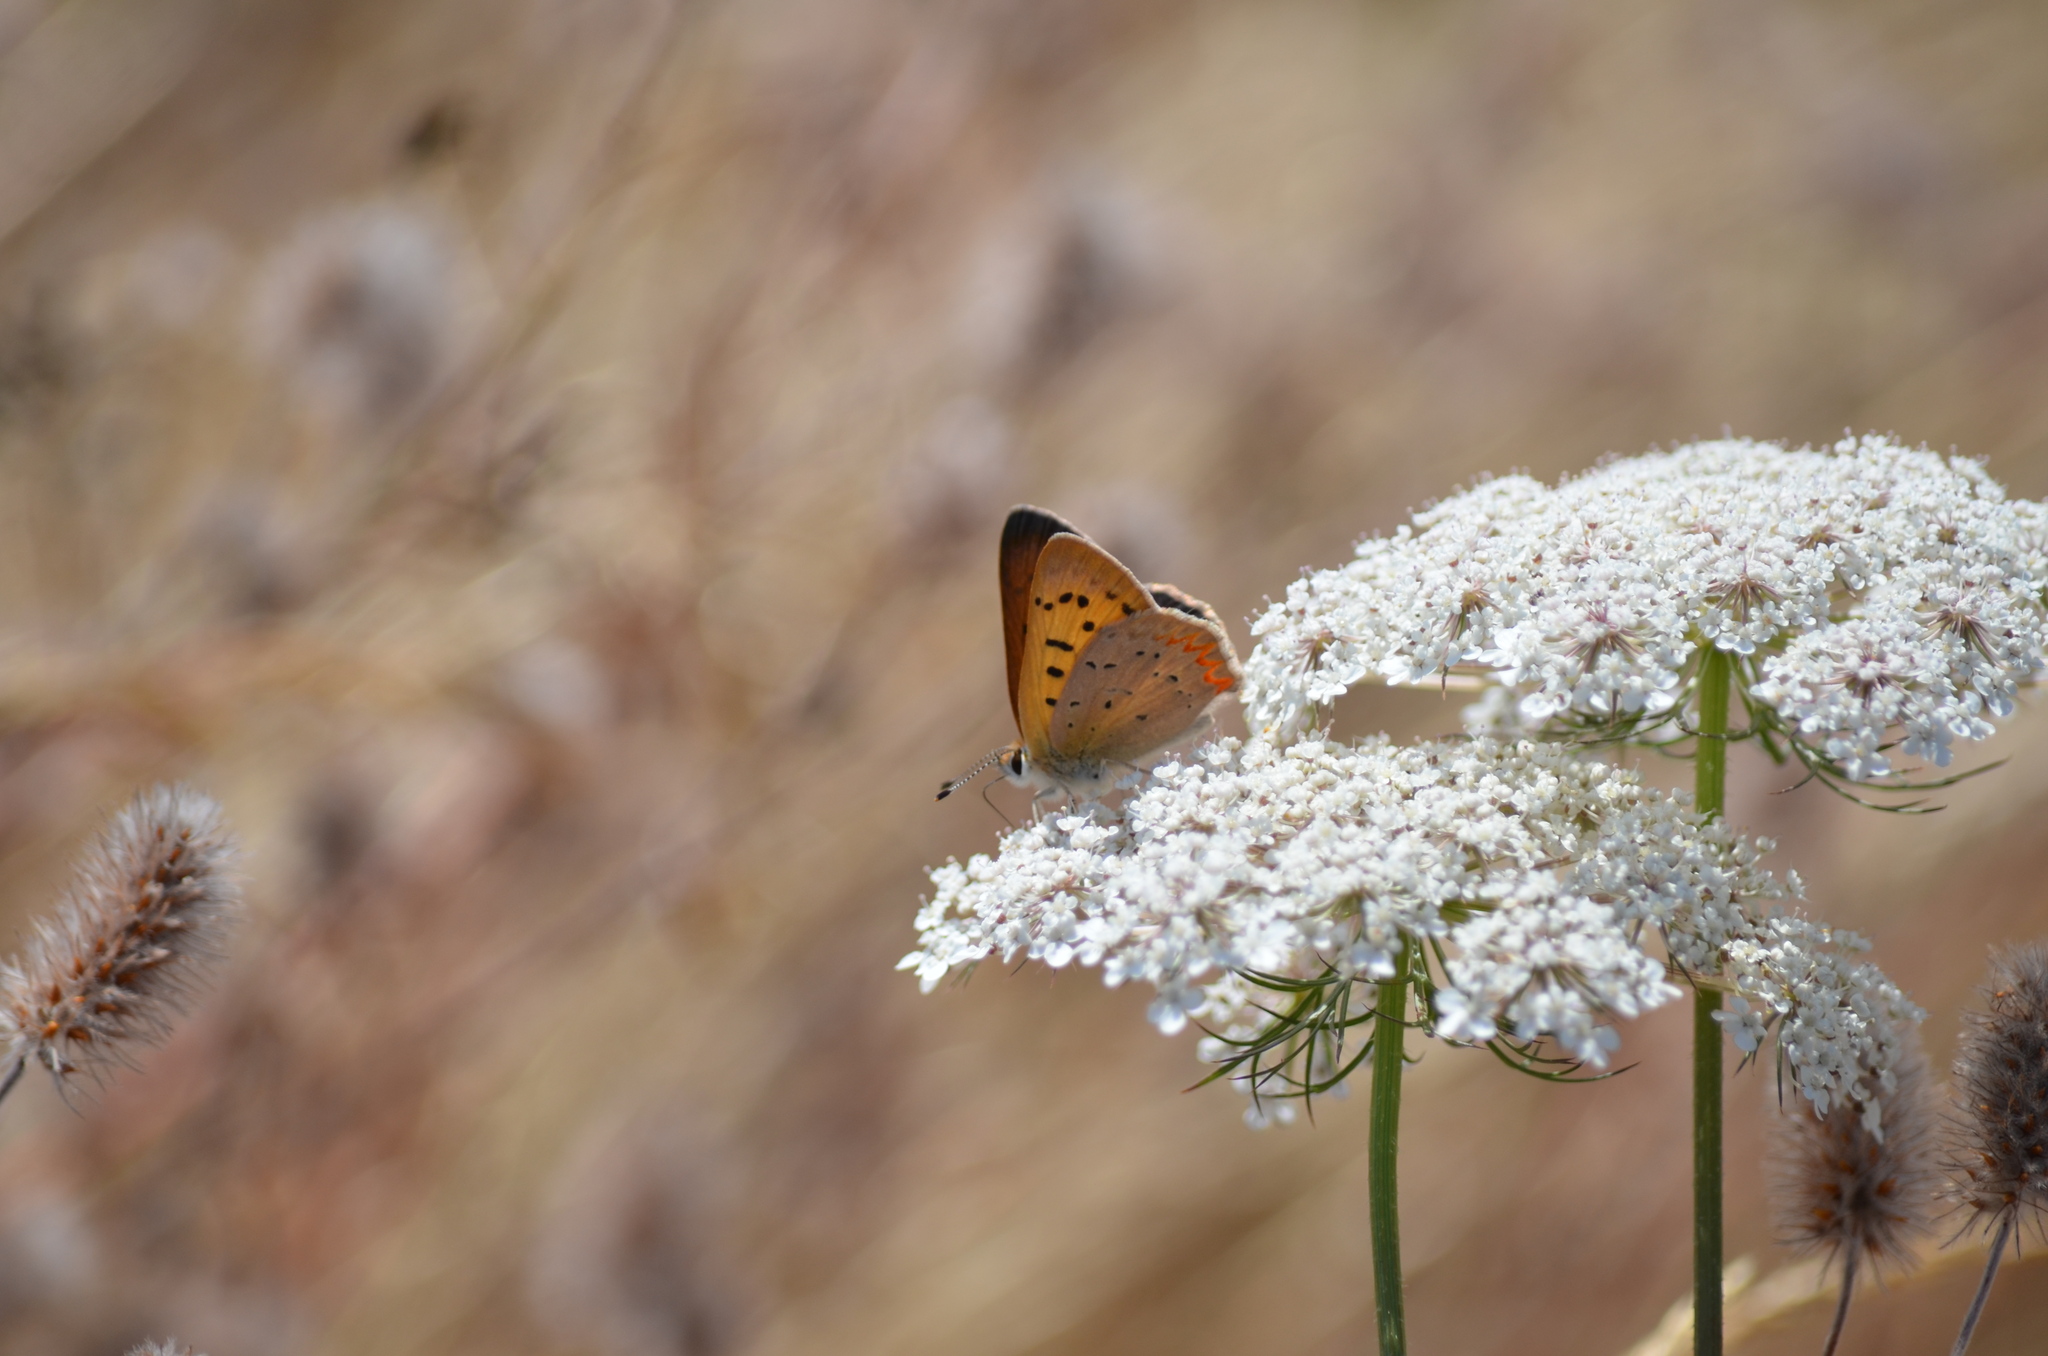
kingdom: Animalia
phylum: Arthropoda
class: Insecta
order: Lepidoptera
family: Lycaenidae
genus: Tharsalea
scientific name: Tharsalea helloides
